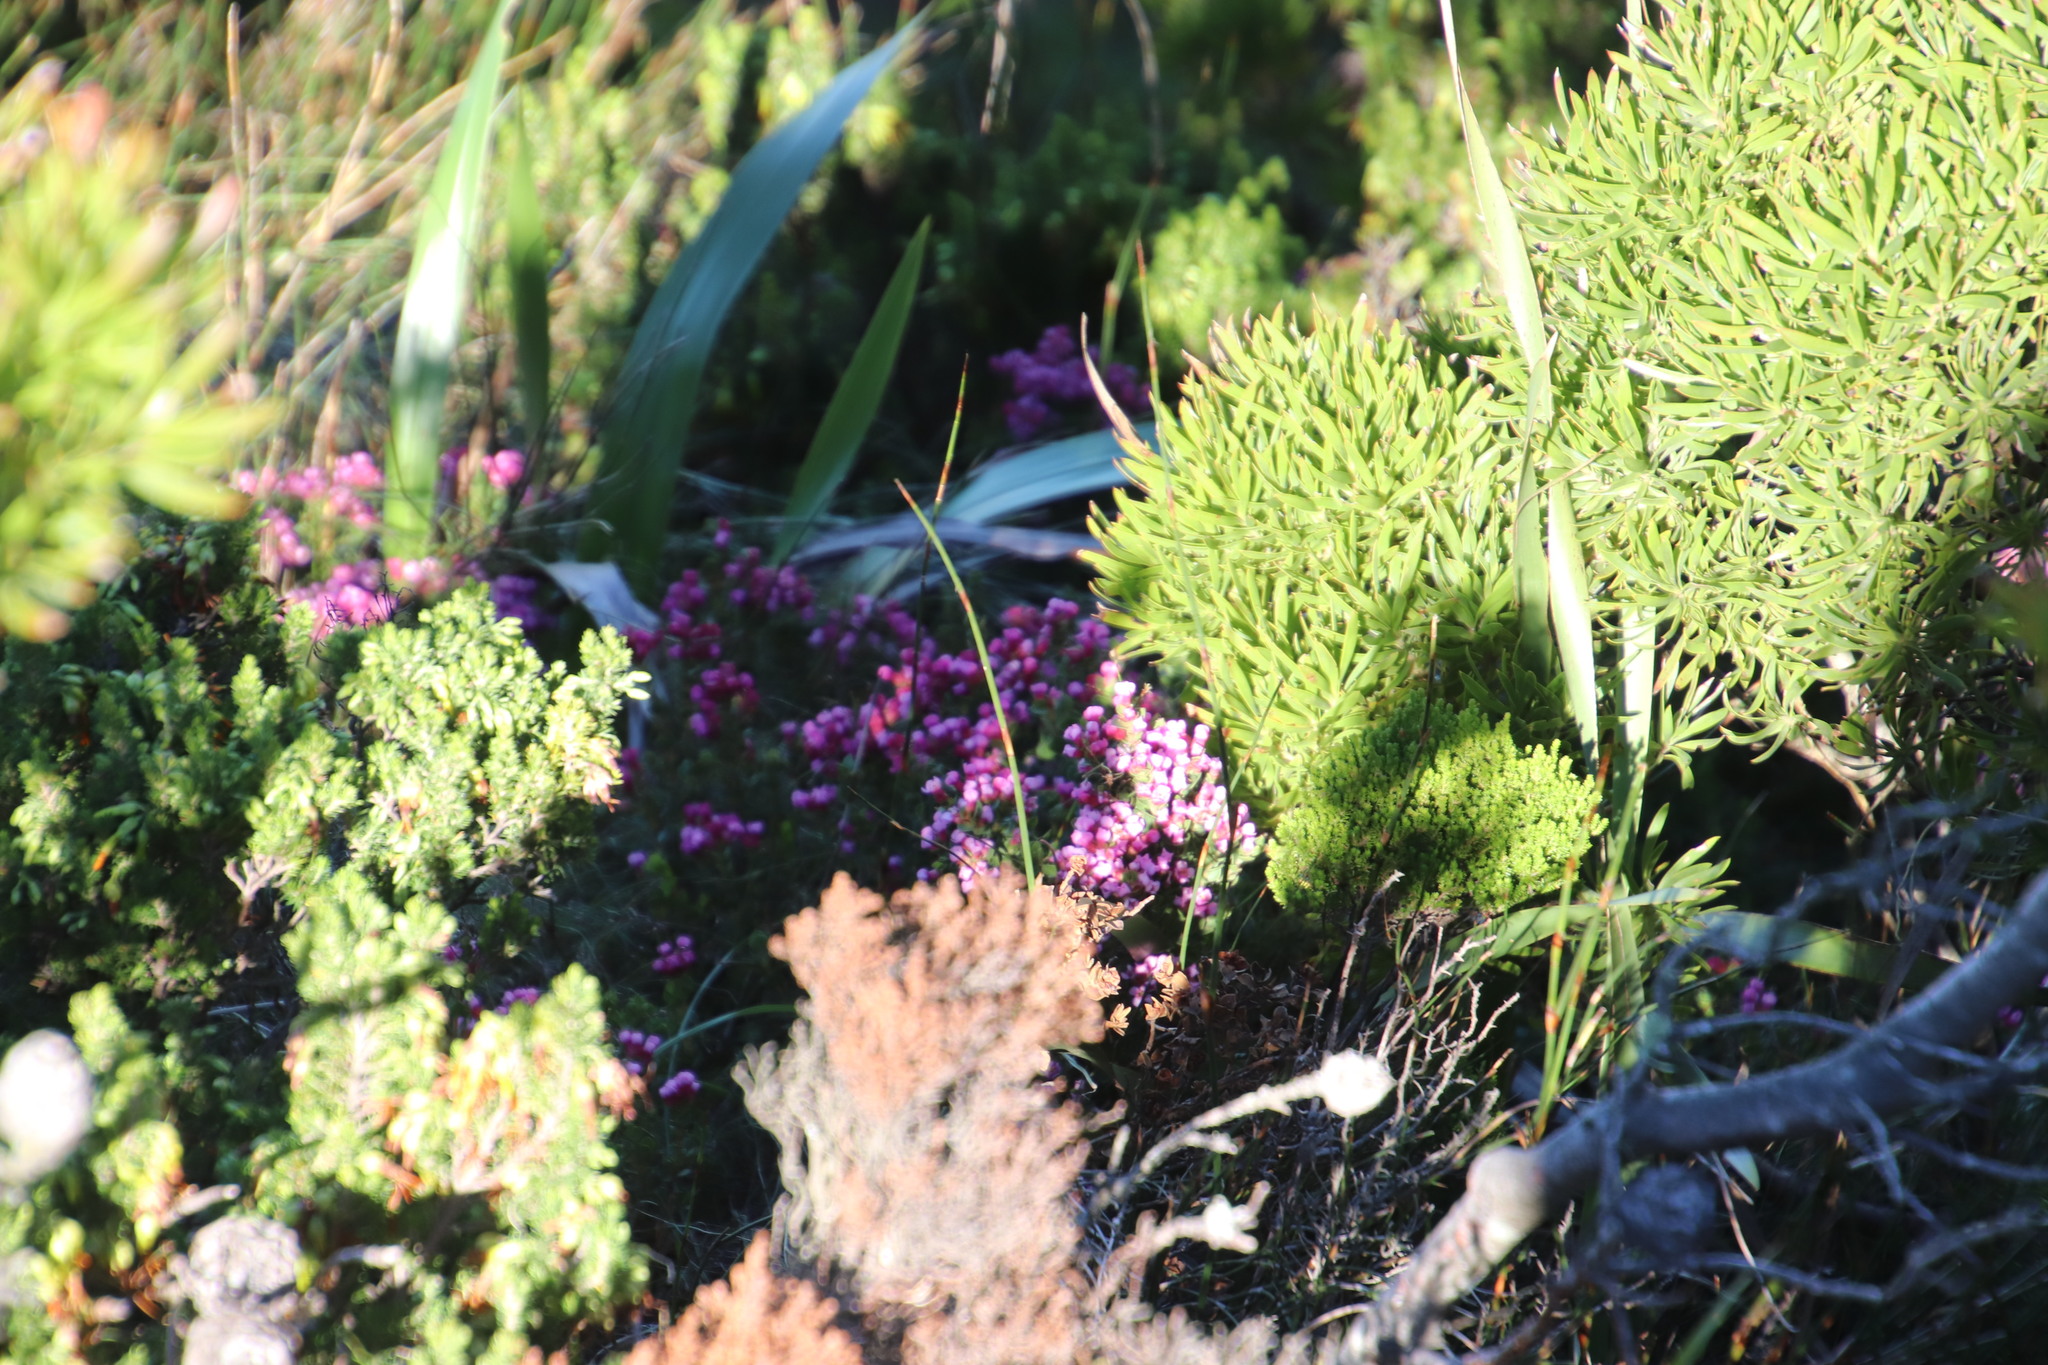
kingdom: Plantae
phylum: Tracheophyta
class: Magnoliopsida
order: Myrtales
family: Penaeaceae
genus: Brachysiphon
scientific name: Brachysiphon fucatus
